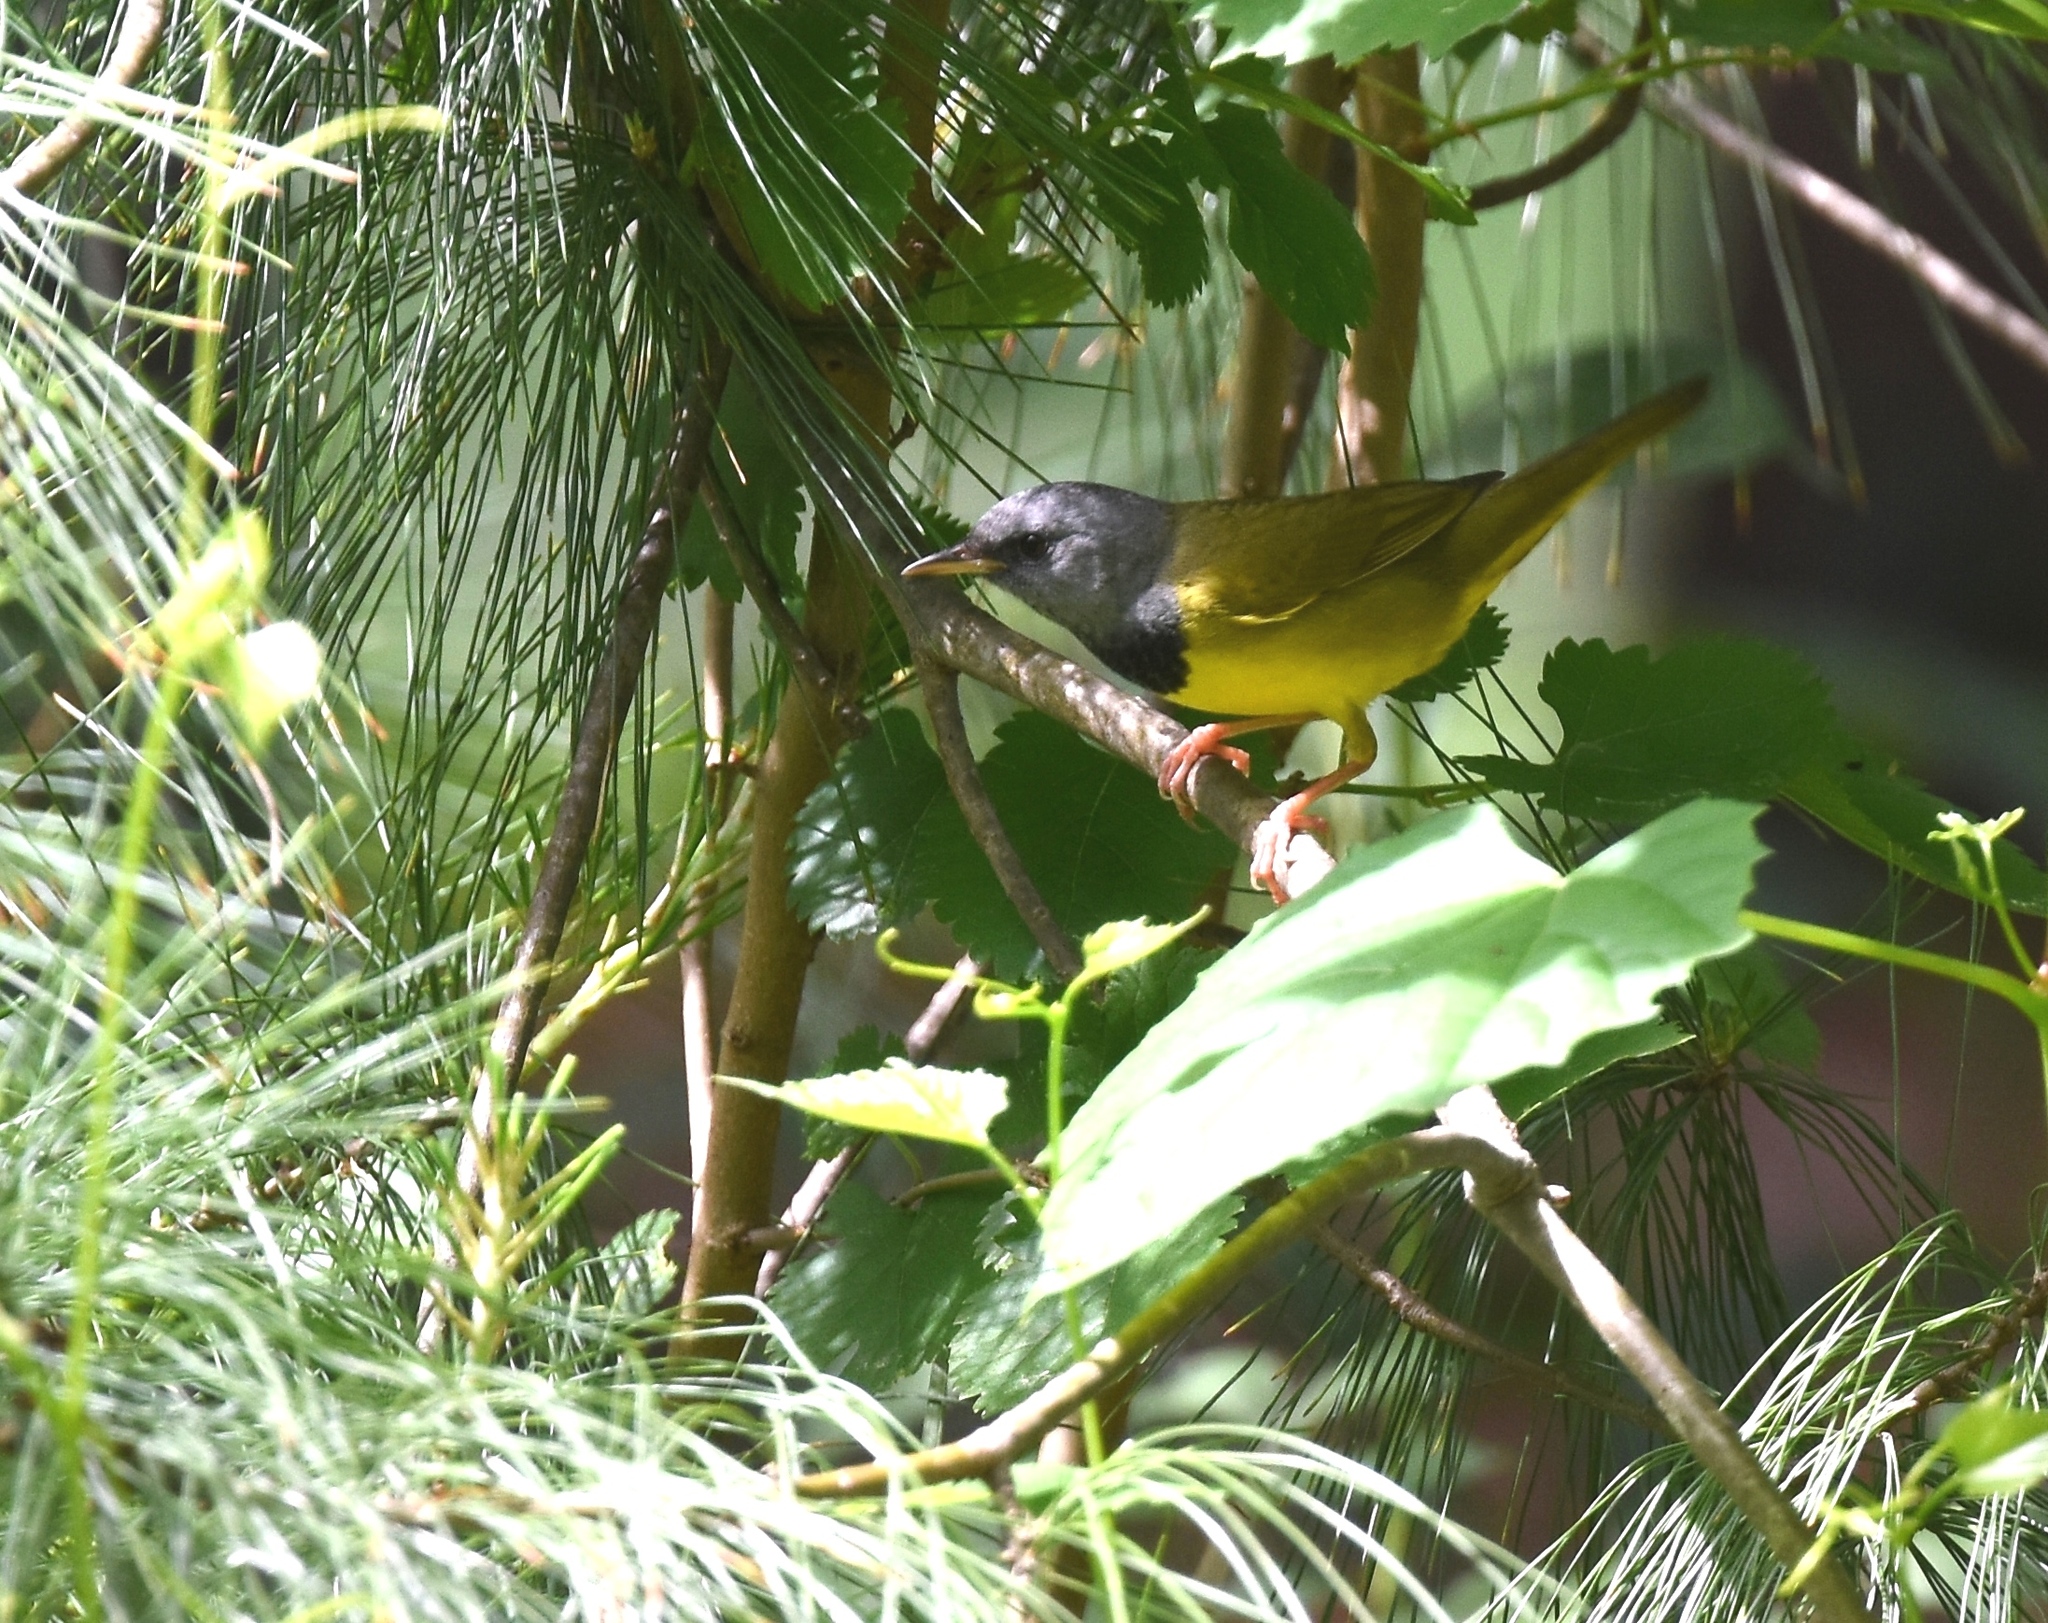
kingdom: Animalia
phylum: Chordata
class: Aves
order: Passeriformes
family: Parulidae
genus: Geothlypis
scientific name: Geothlypis philadelphia
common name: Mourning warbler
